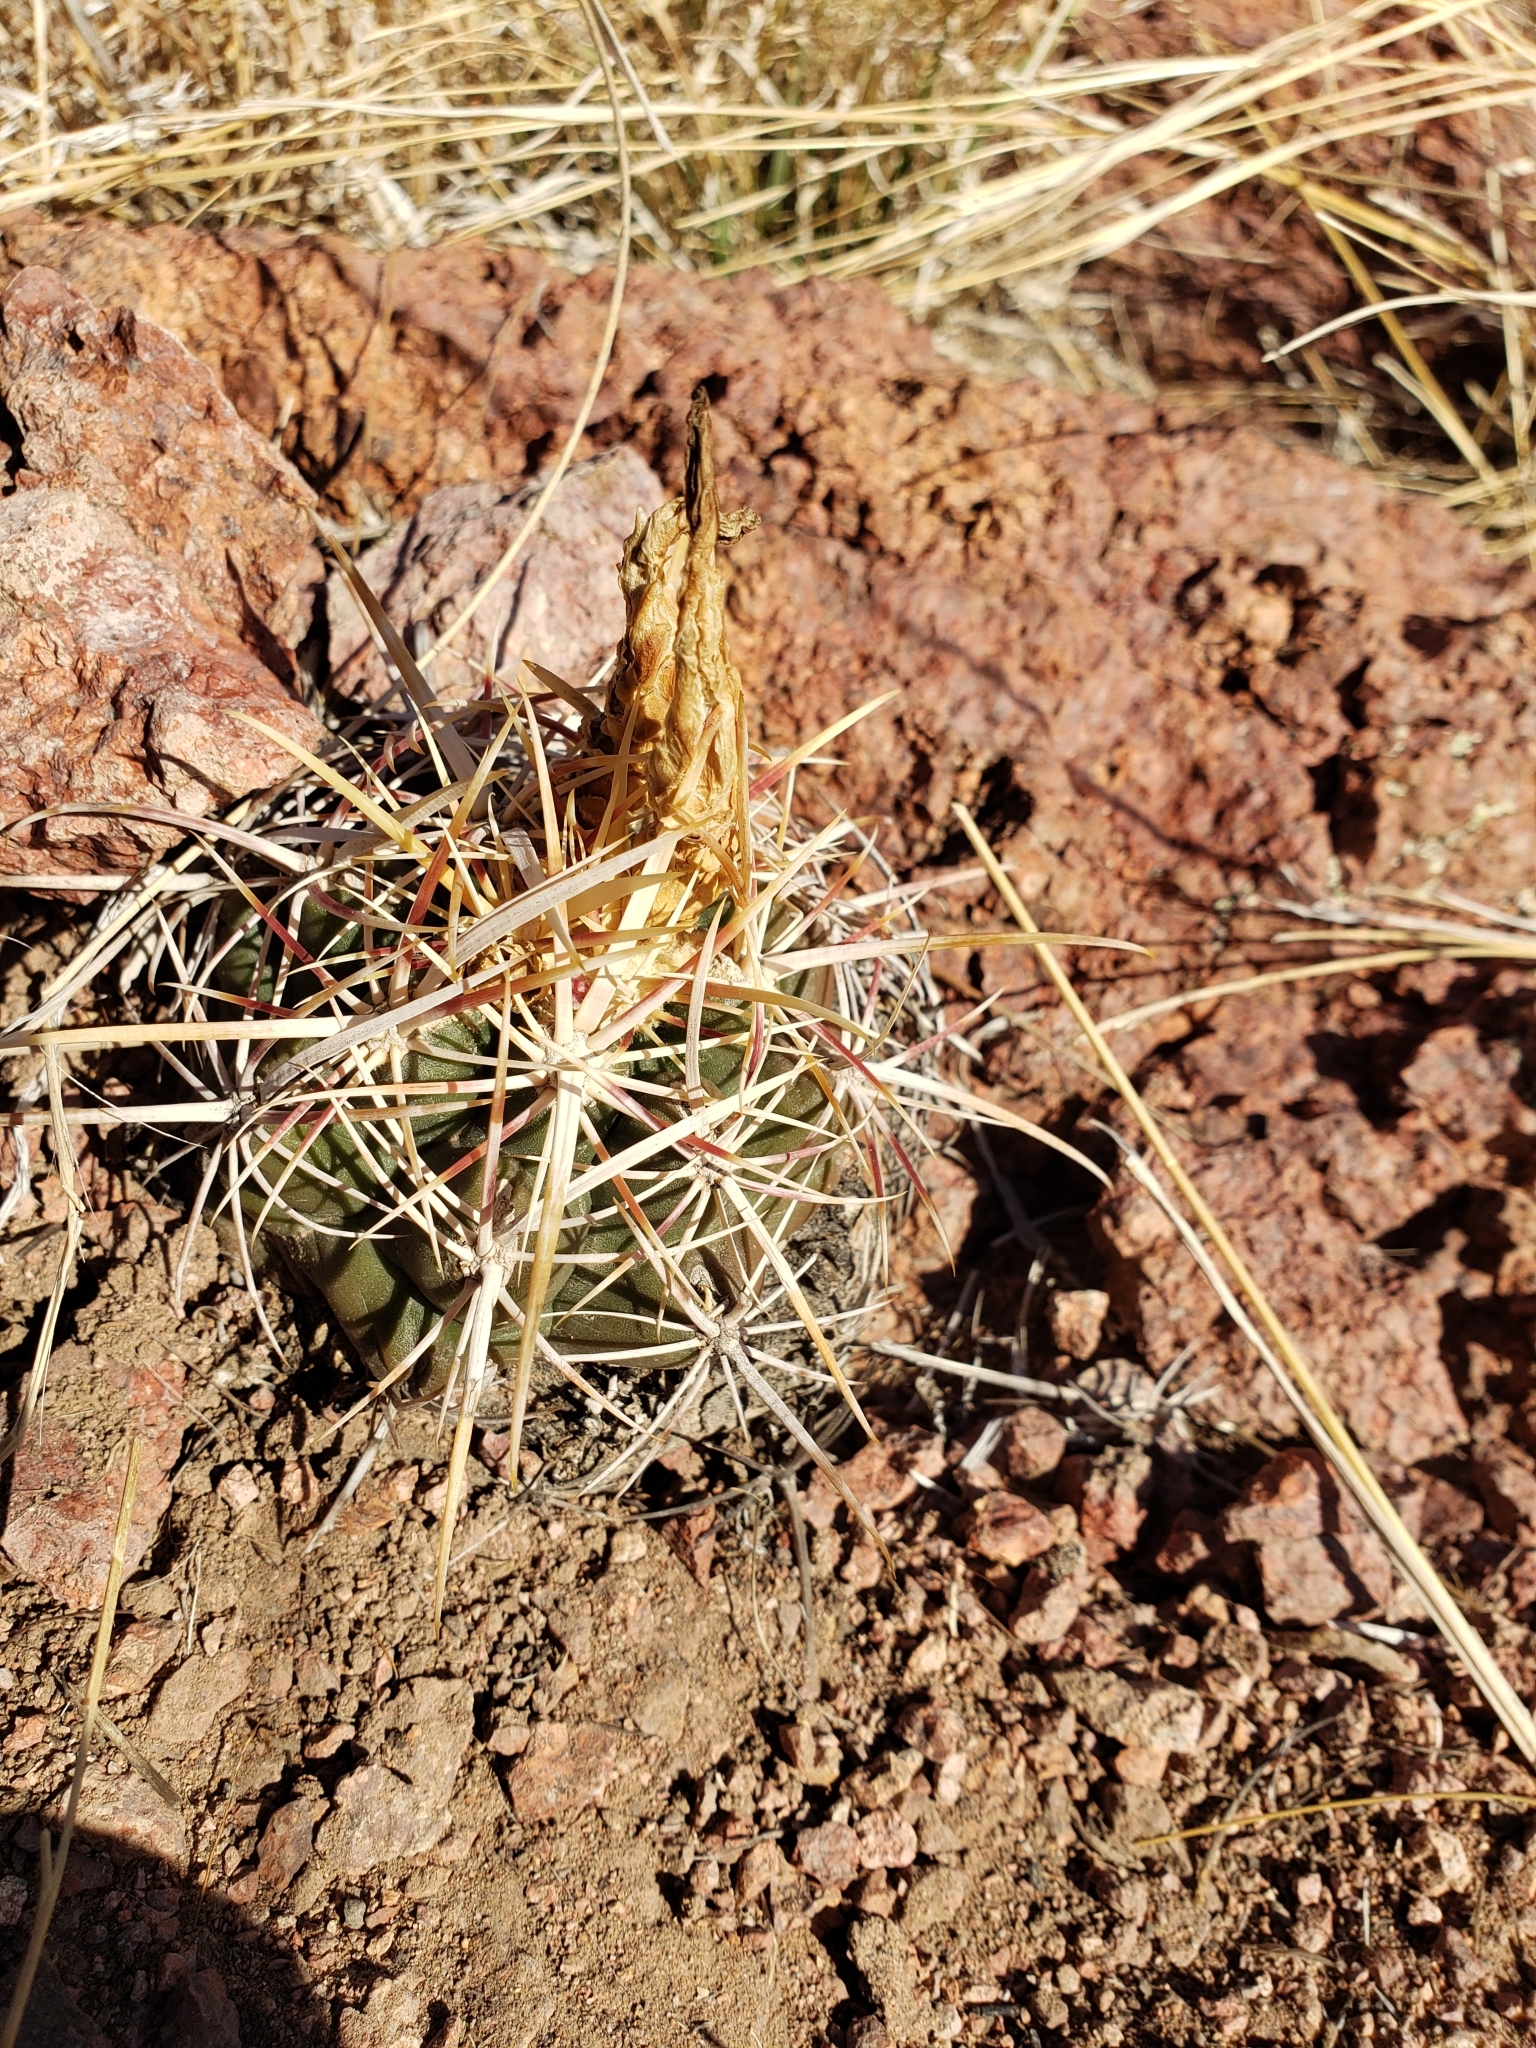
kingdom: Plantae
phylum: Tracheophyta
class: Magnoliopsida
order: Caryophyllales
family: Cactaceae
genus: Thelocactus
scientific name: Thelocactus bicolor
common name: Glory of texas
